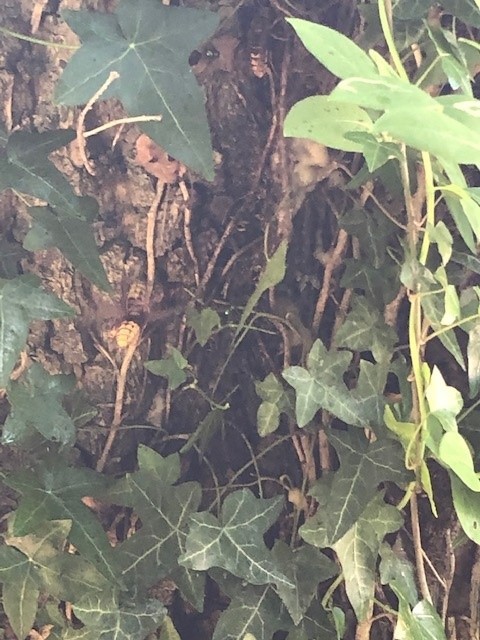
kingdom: Animalia
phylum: Arthropoda
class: Insecta
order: Hymenoptera
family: Vespidae
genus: Vespa
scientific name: Vespa crabro
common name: Hornet
